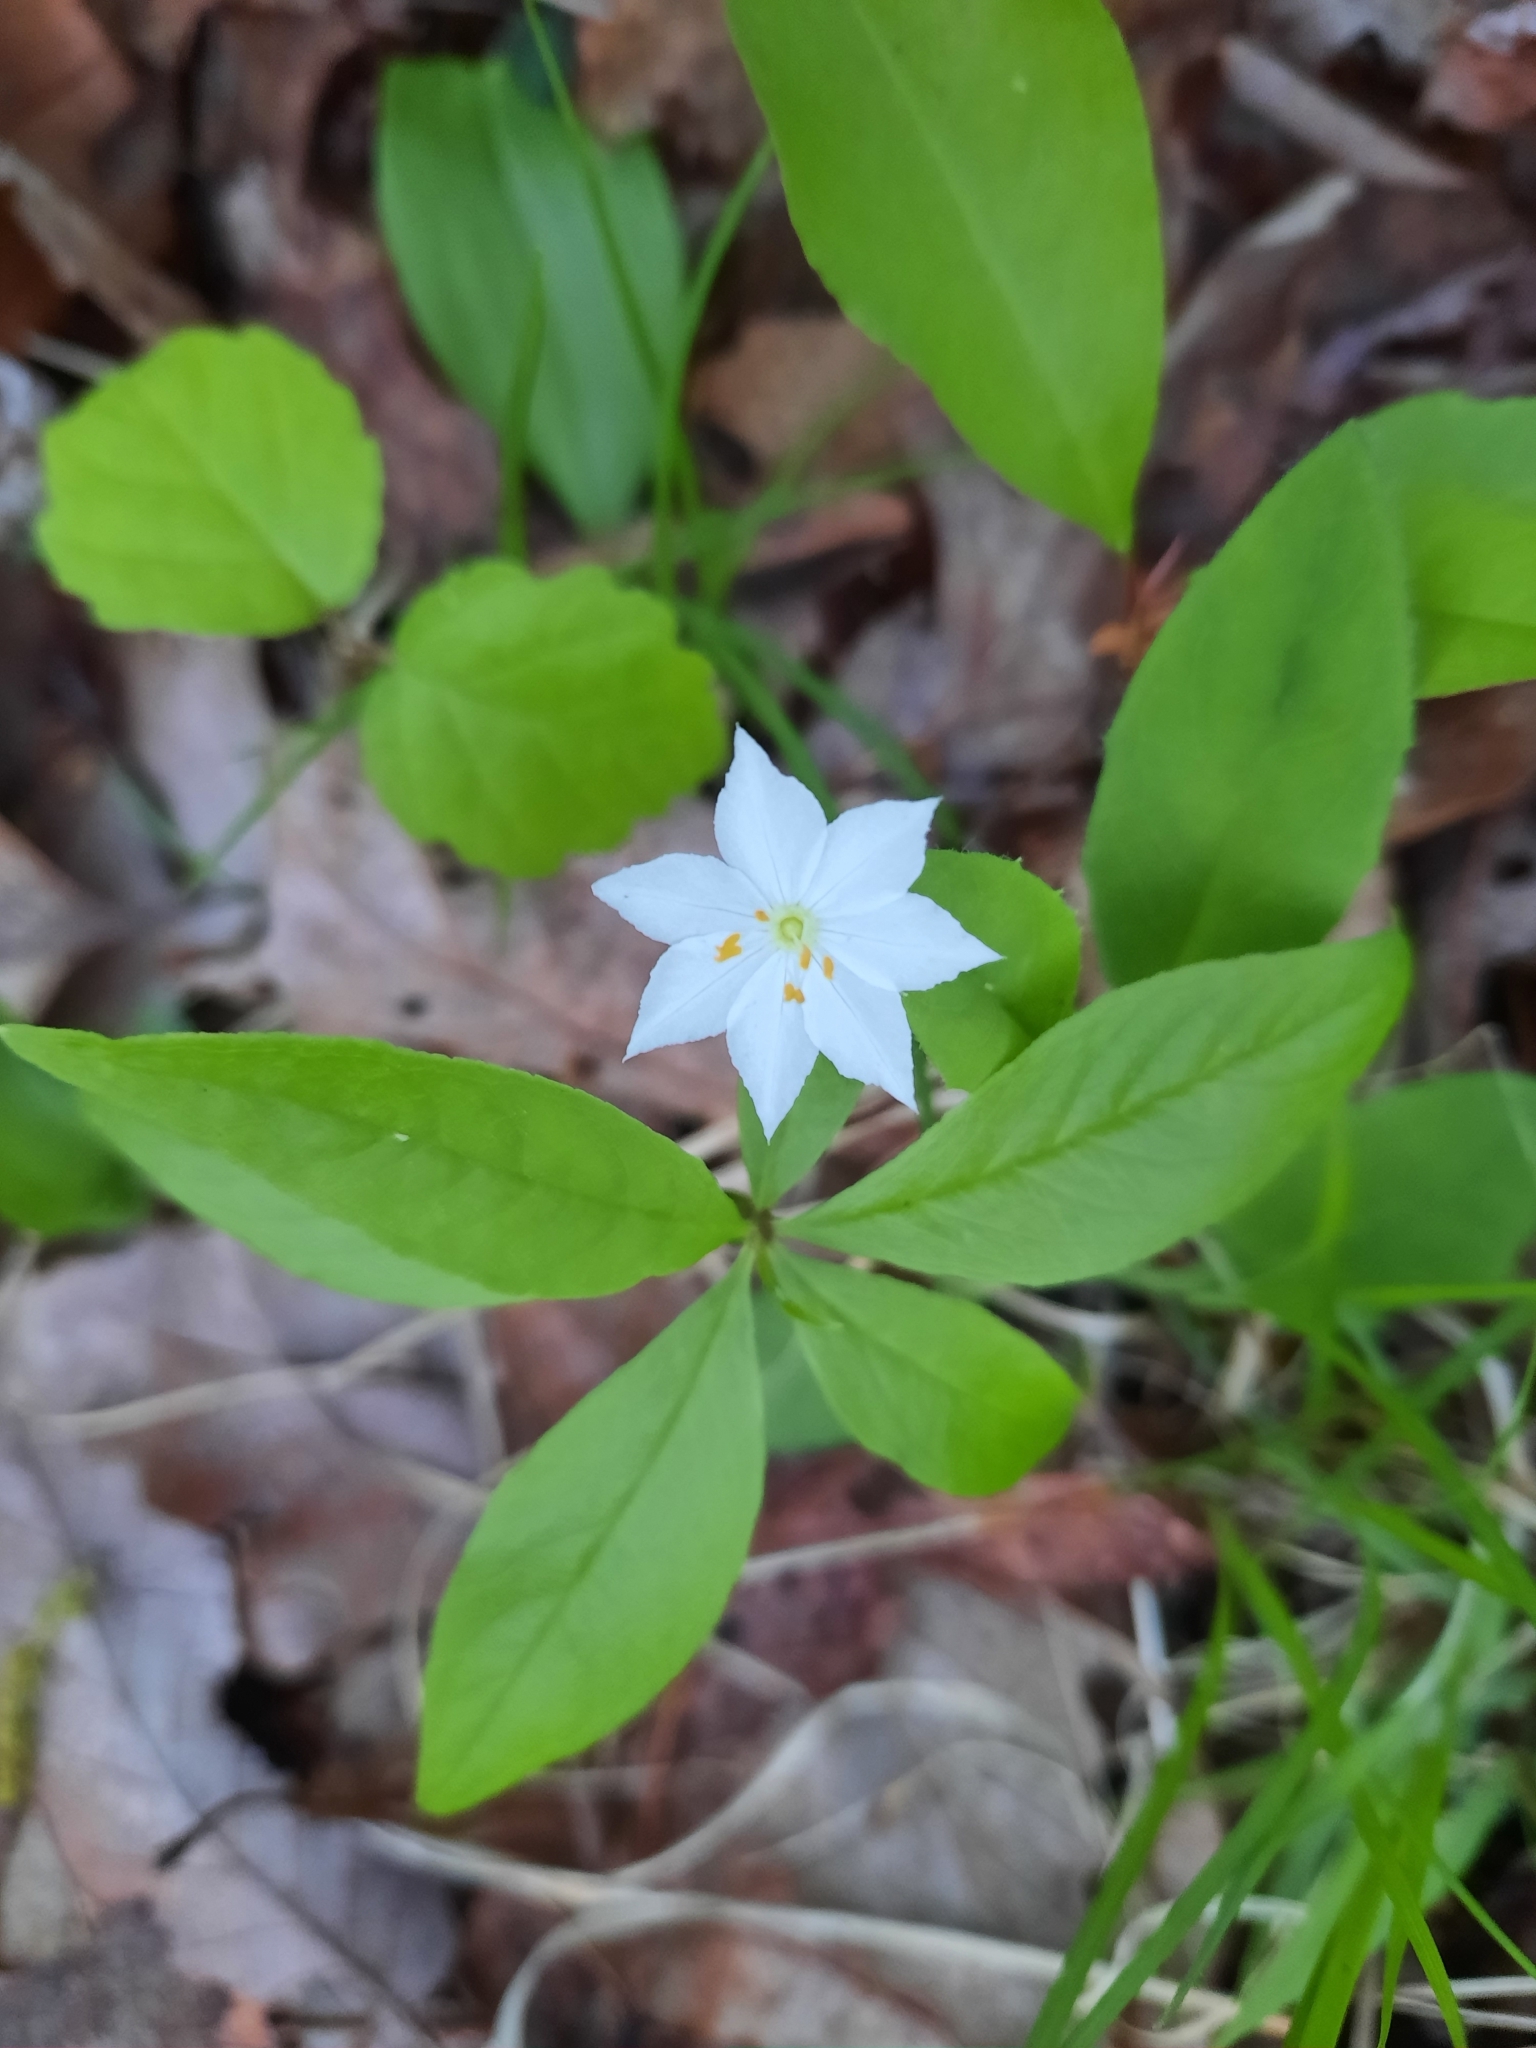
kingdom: Plantae
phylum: Tracheophyta
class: Magnoliopsida
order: Ericales
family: Primulaceae
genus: Lysimachia
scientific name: Lysimachia borealis
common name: American starflower
